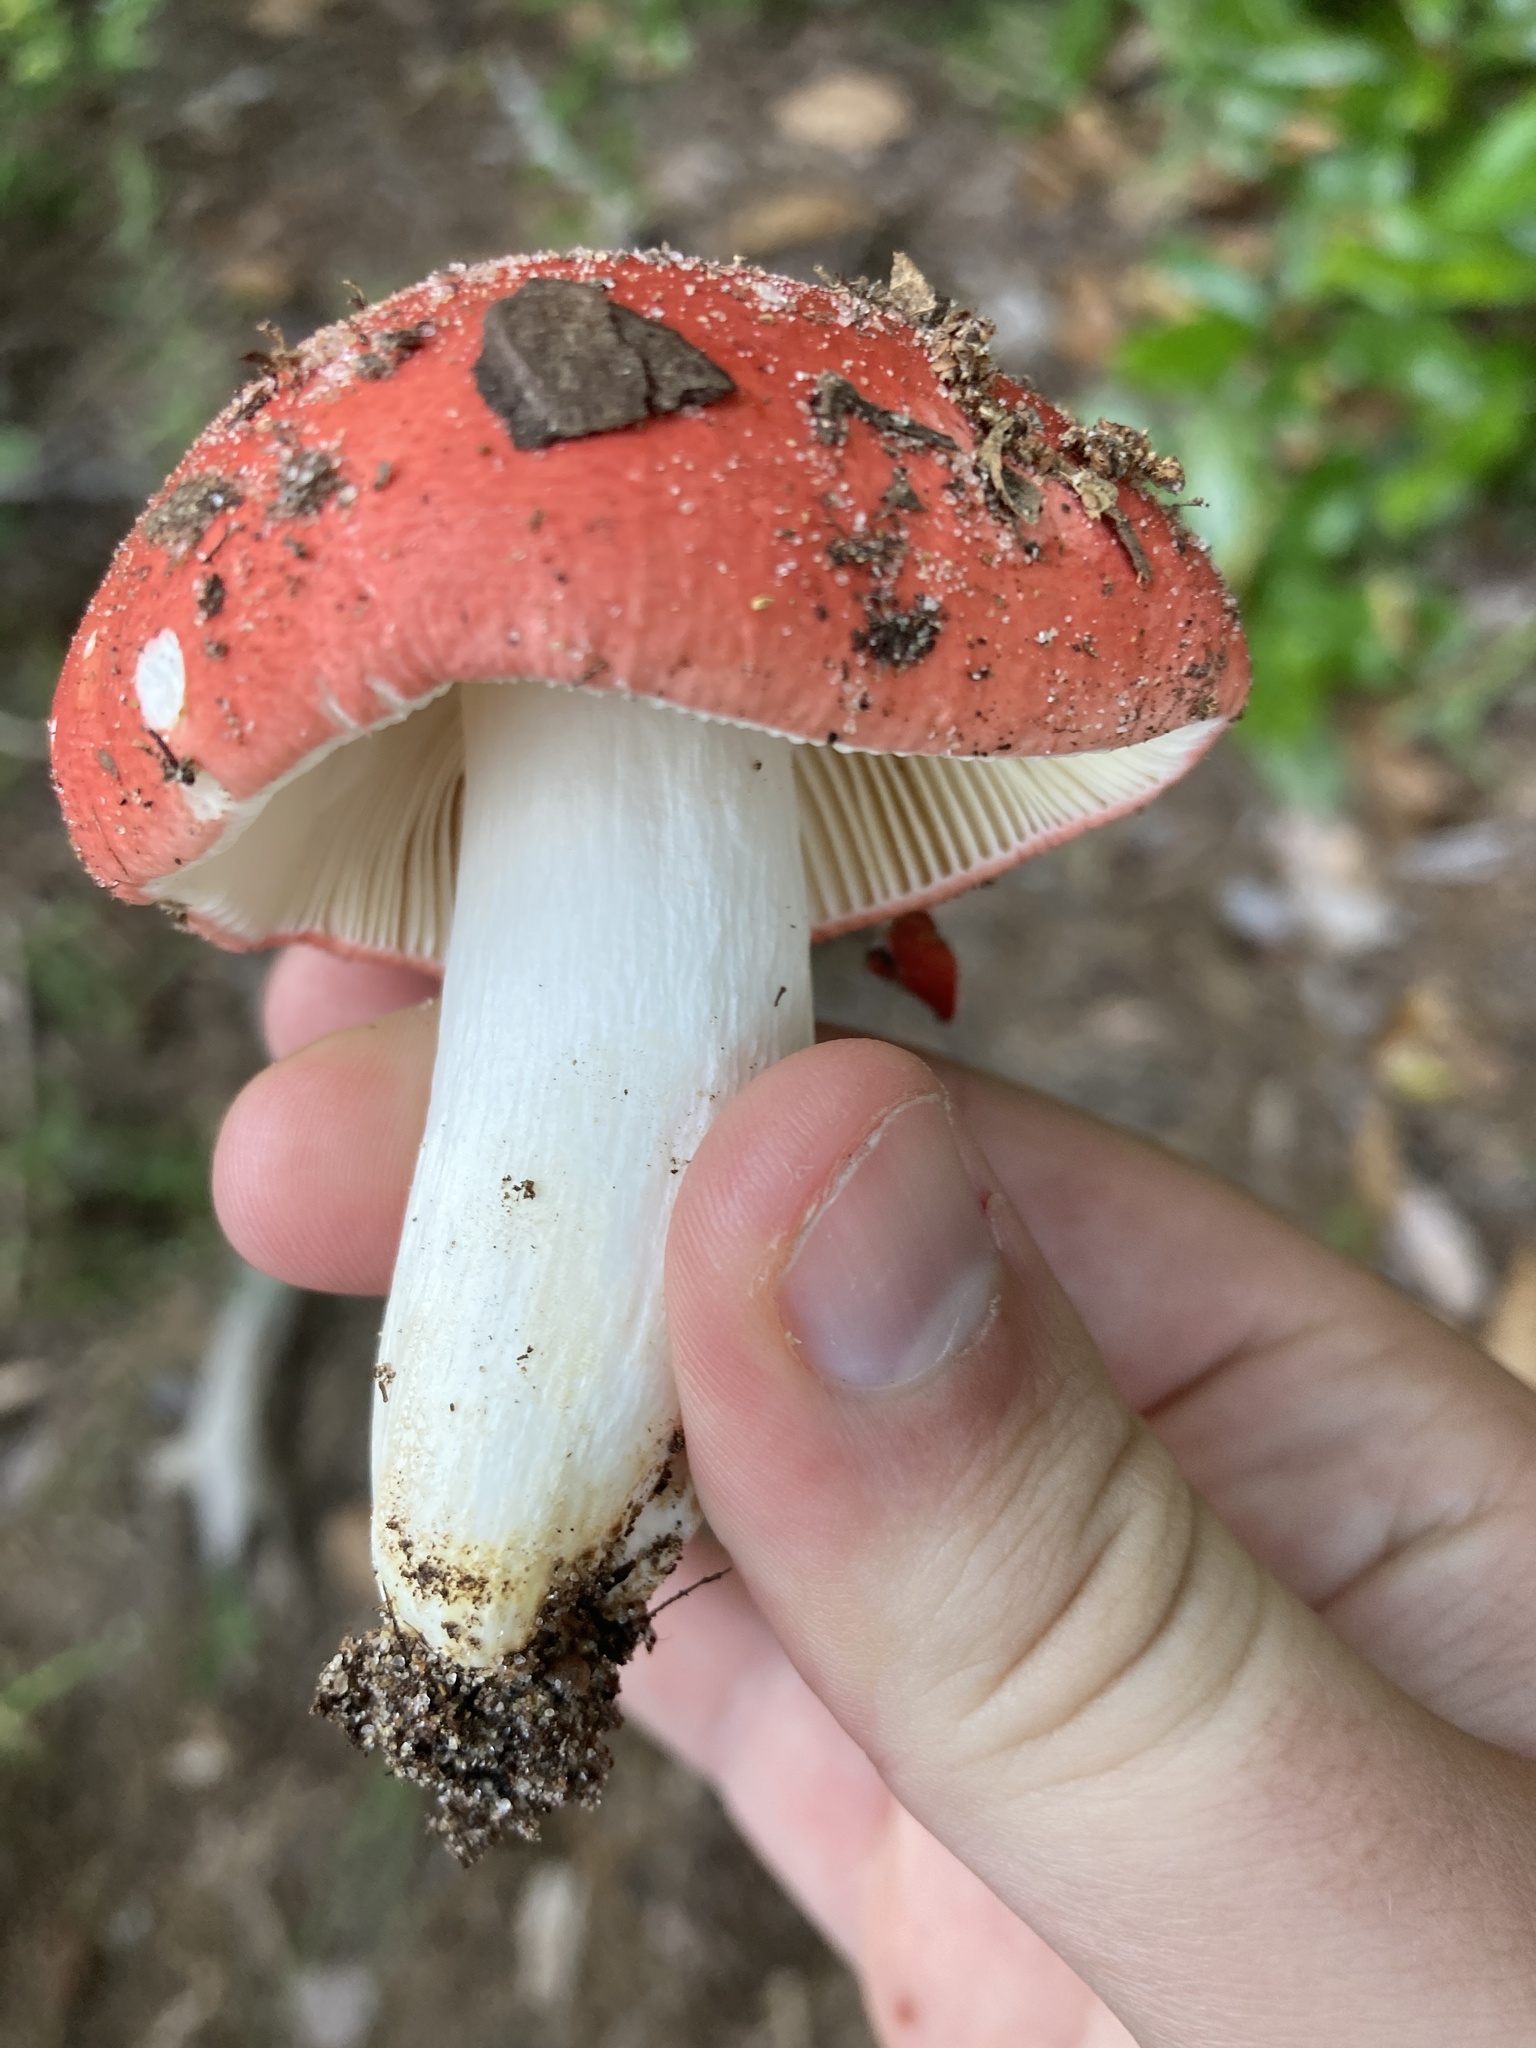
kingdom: Fungi
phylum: Basidiomycota
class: Agaricomycetes
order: Russulales
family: Russulaceae
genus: Russula
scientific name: Russula
